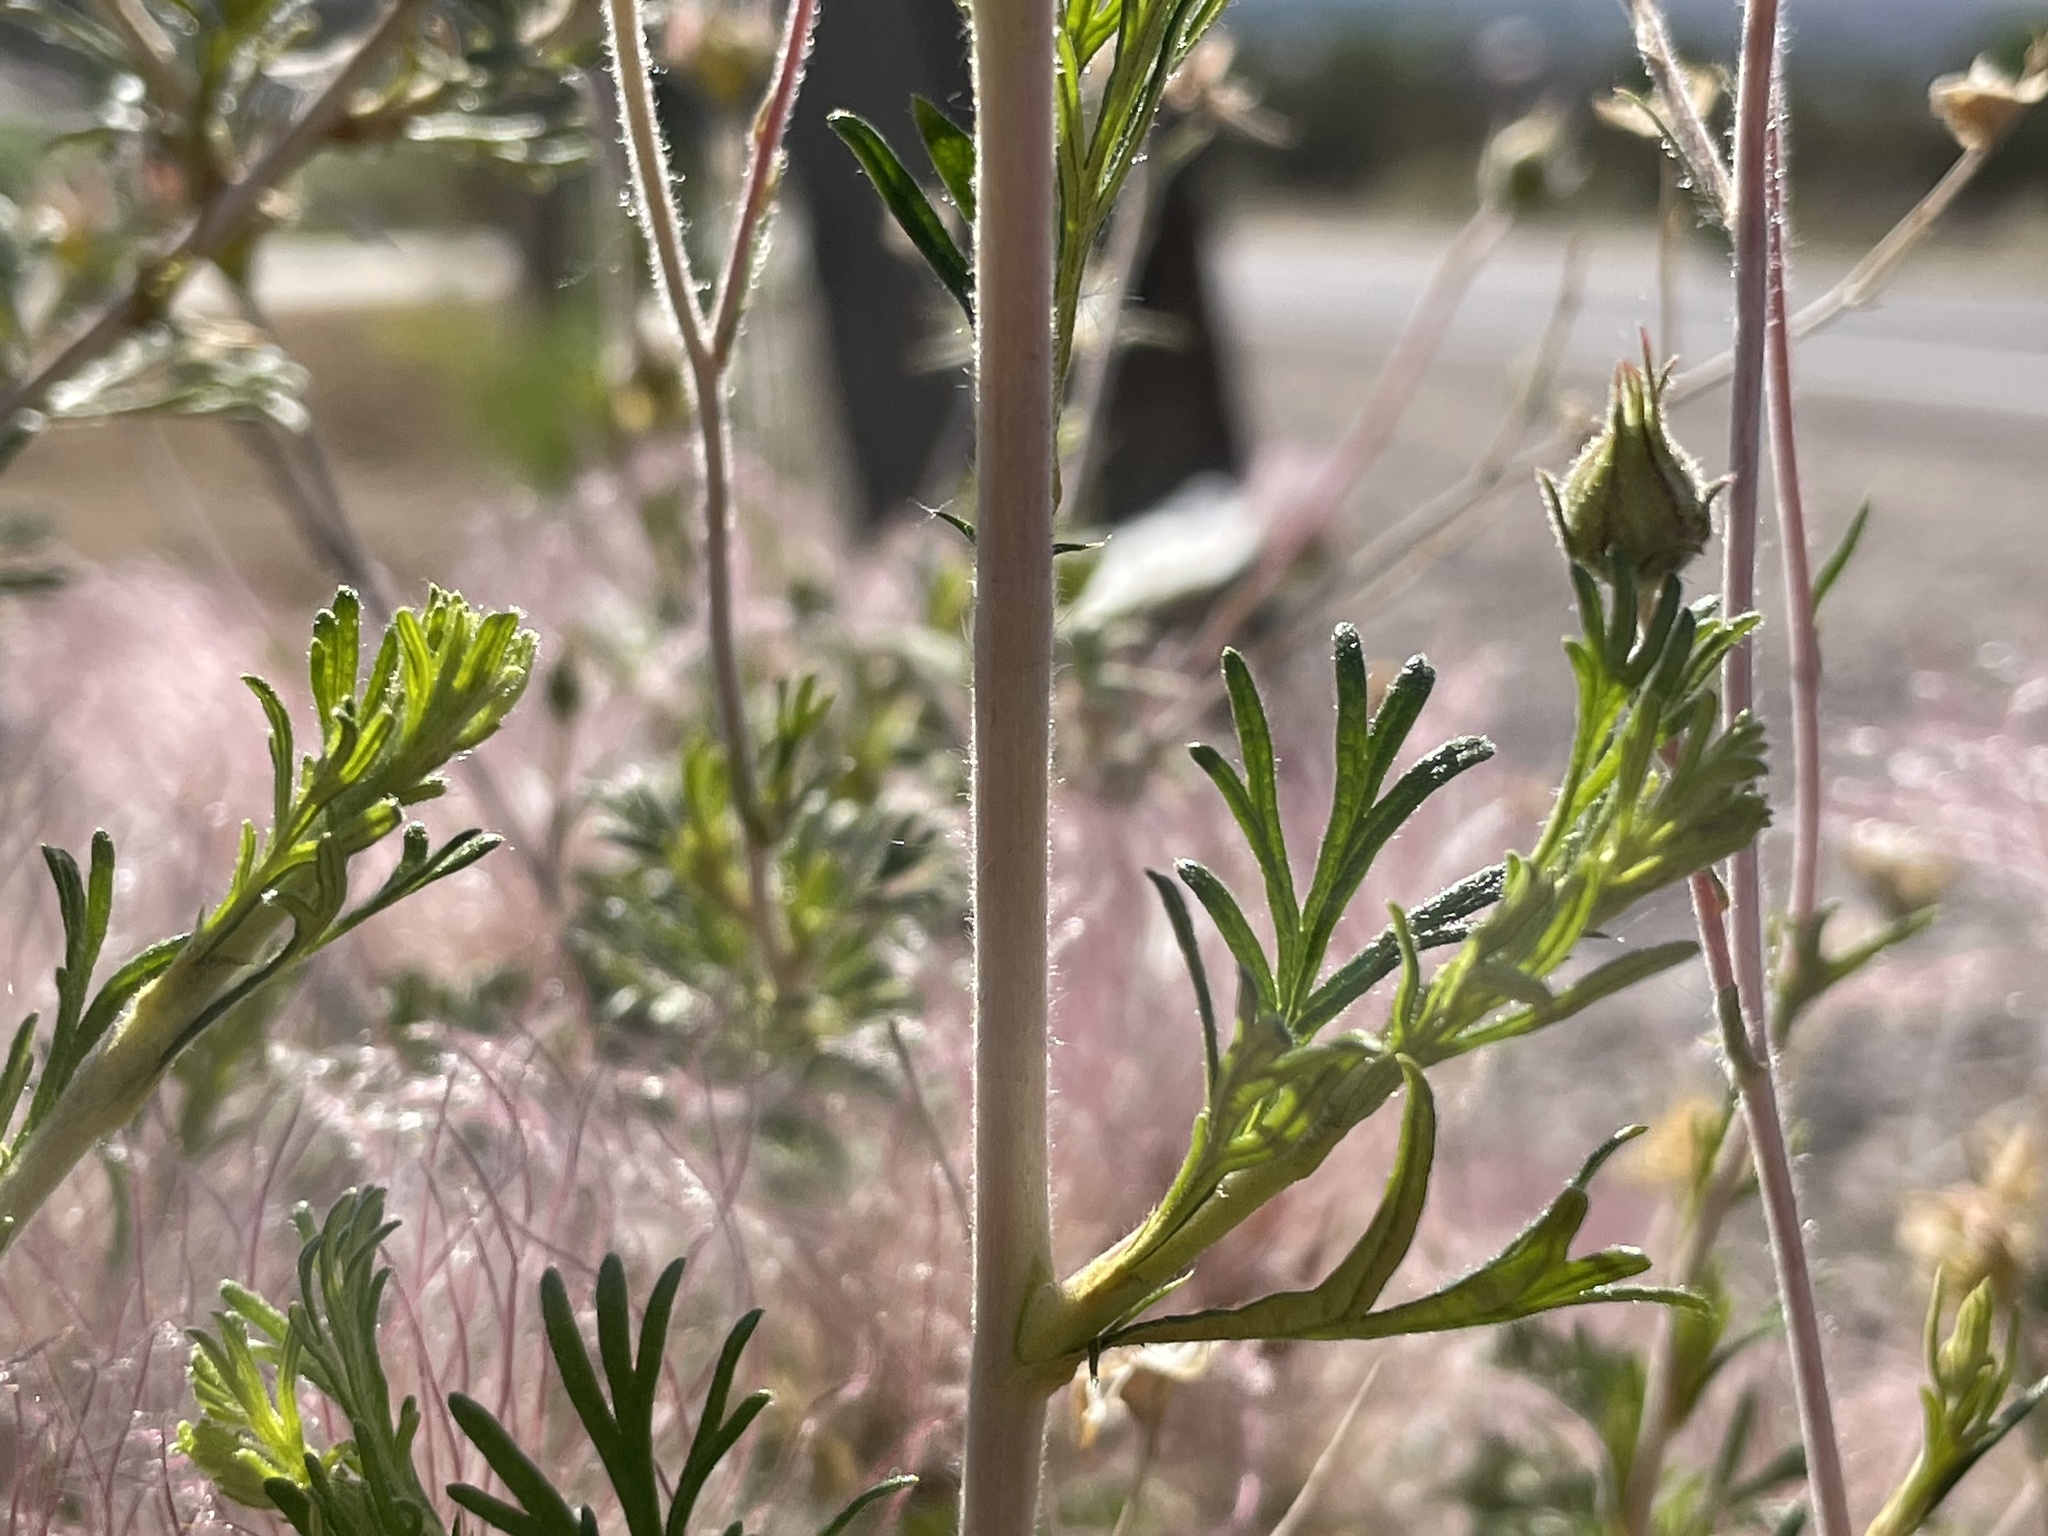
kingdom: Plantae
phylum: Tracheophyta
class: Magnoliopsida
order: Rosales
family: Rosaceae
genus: Fallugia
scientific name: Fallugia paradoxa
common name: Apache-plume
